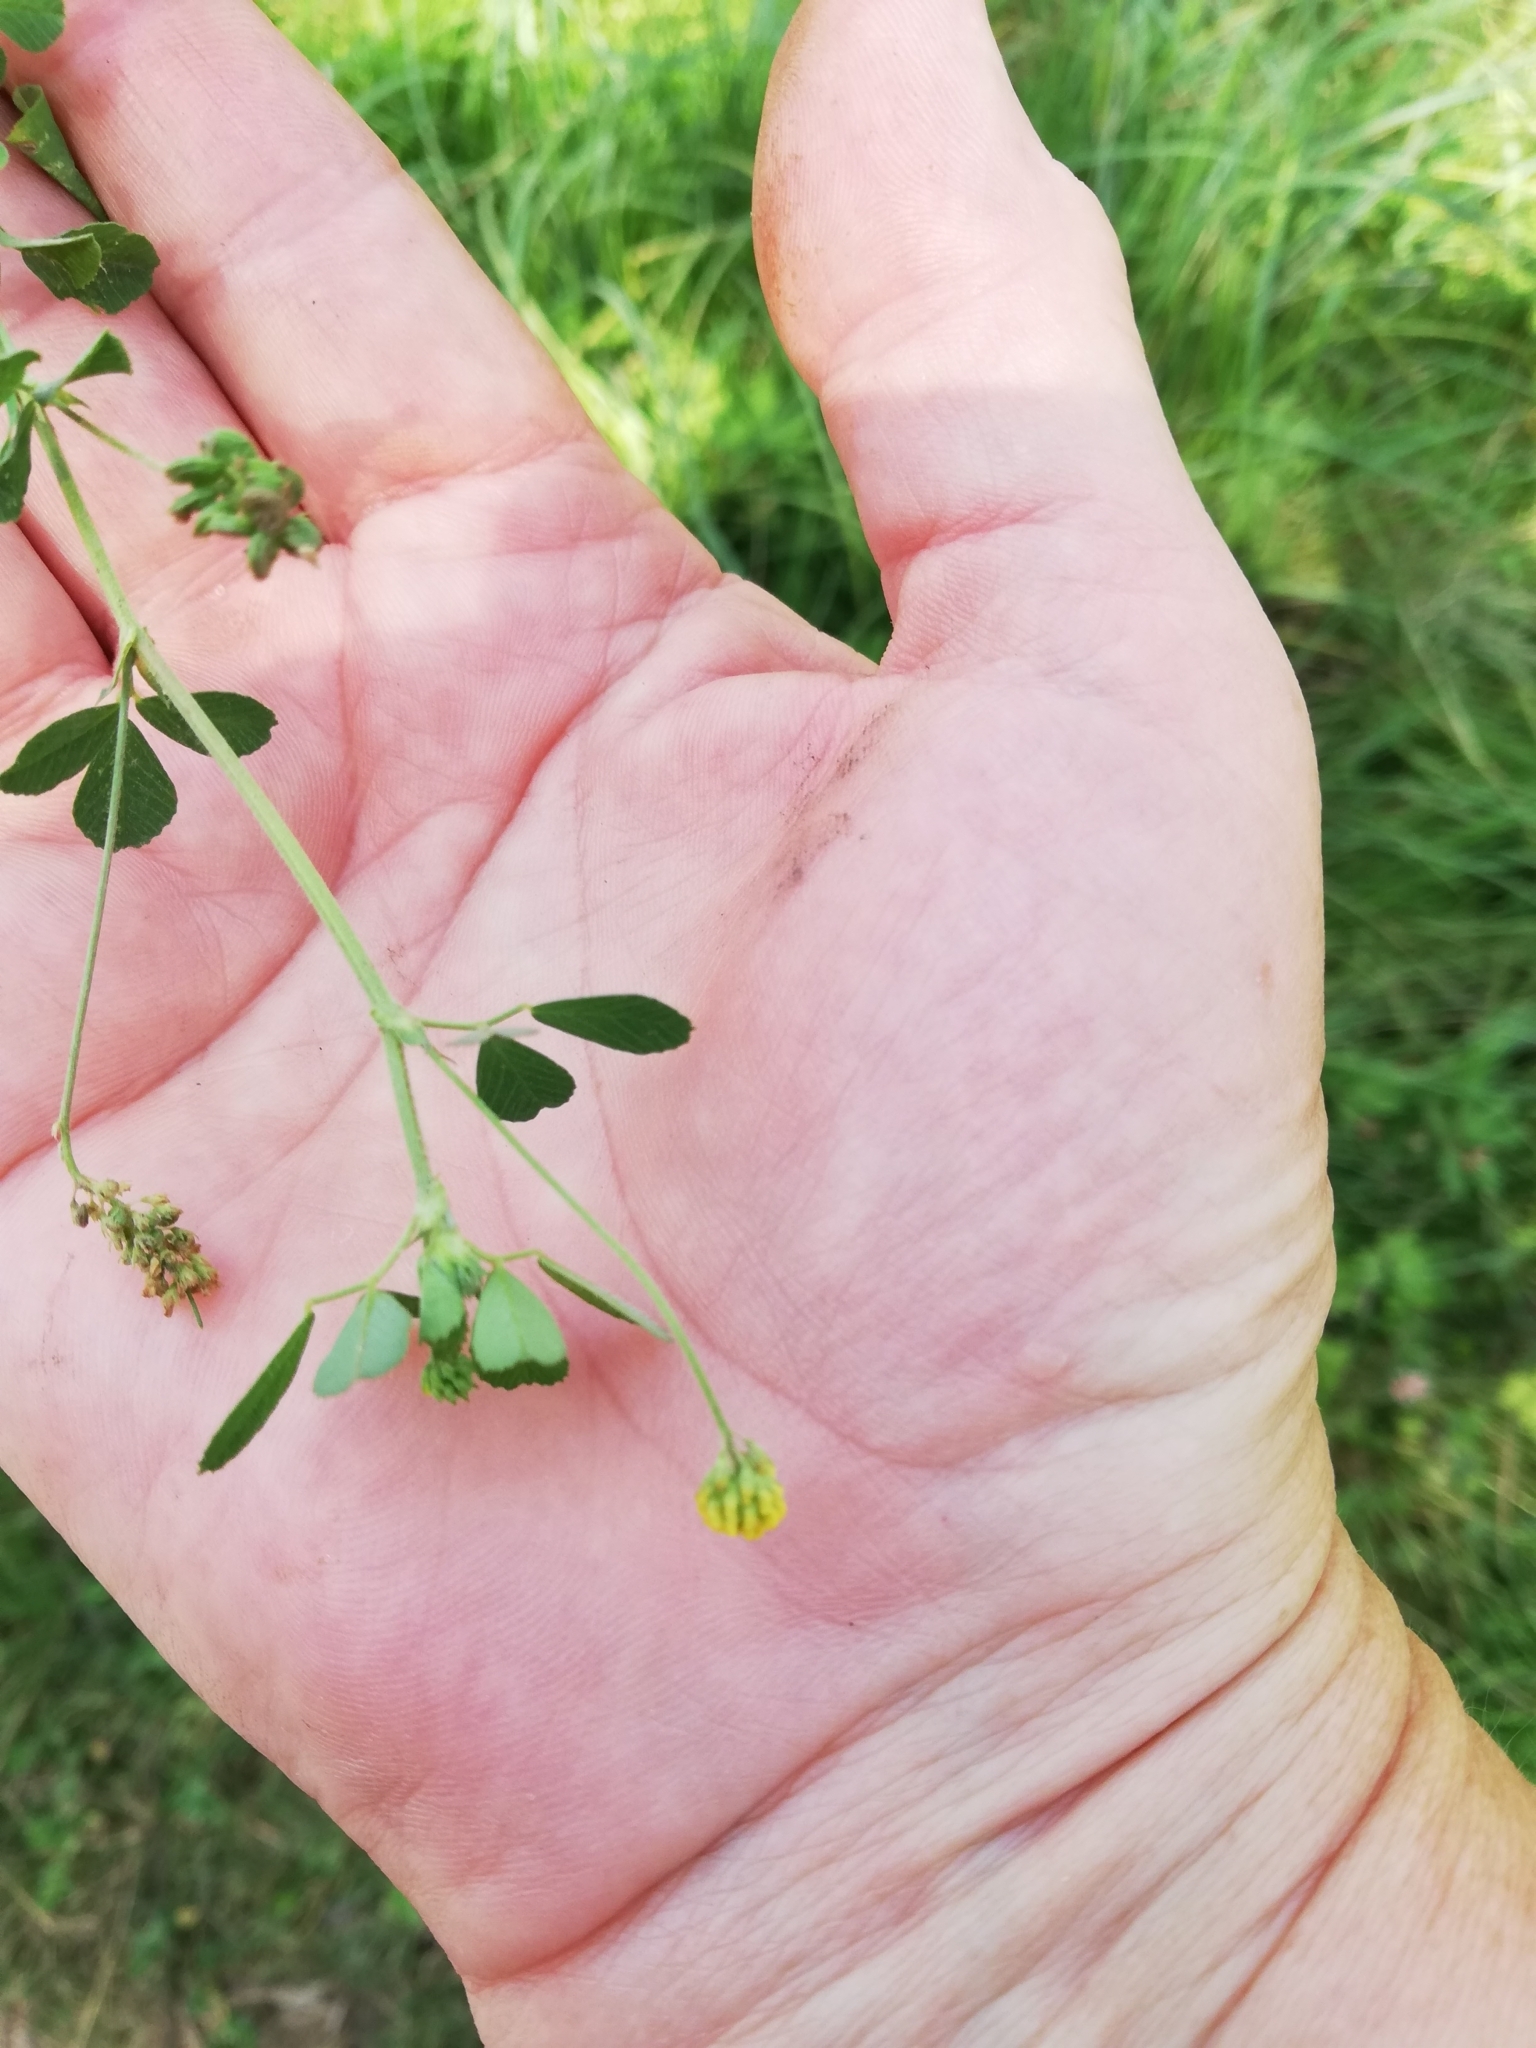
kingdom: Plantae
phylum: Tracheophyta
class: Magnoliopsida
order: Fabales
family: Fabaceae
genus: Medicago
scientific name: Medicago lupulina
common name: Black medick
